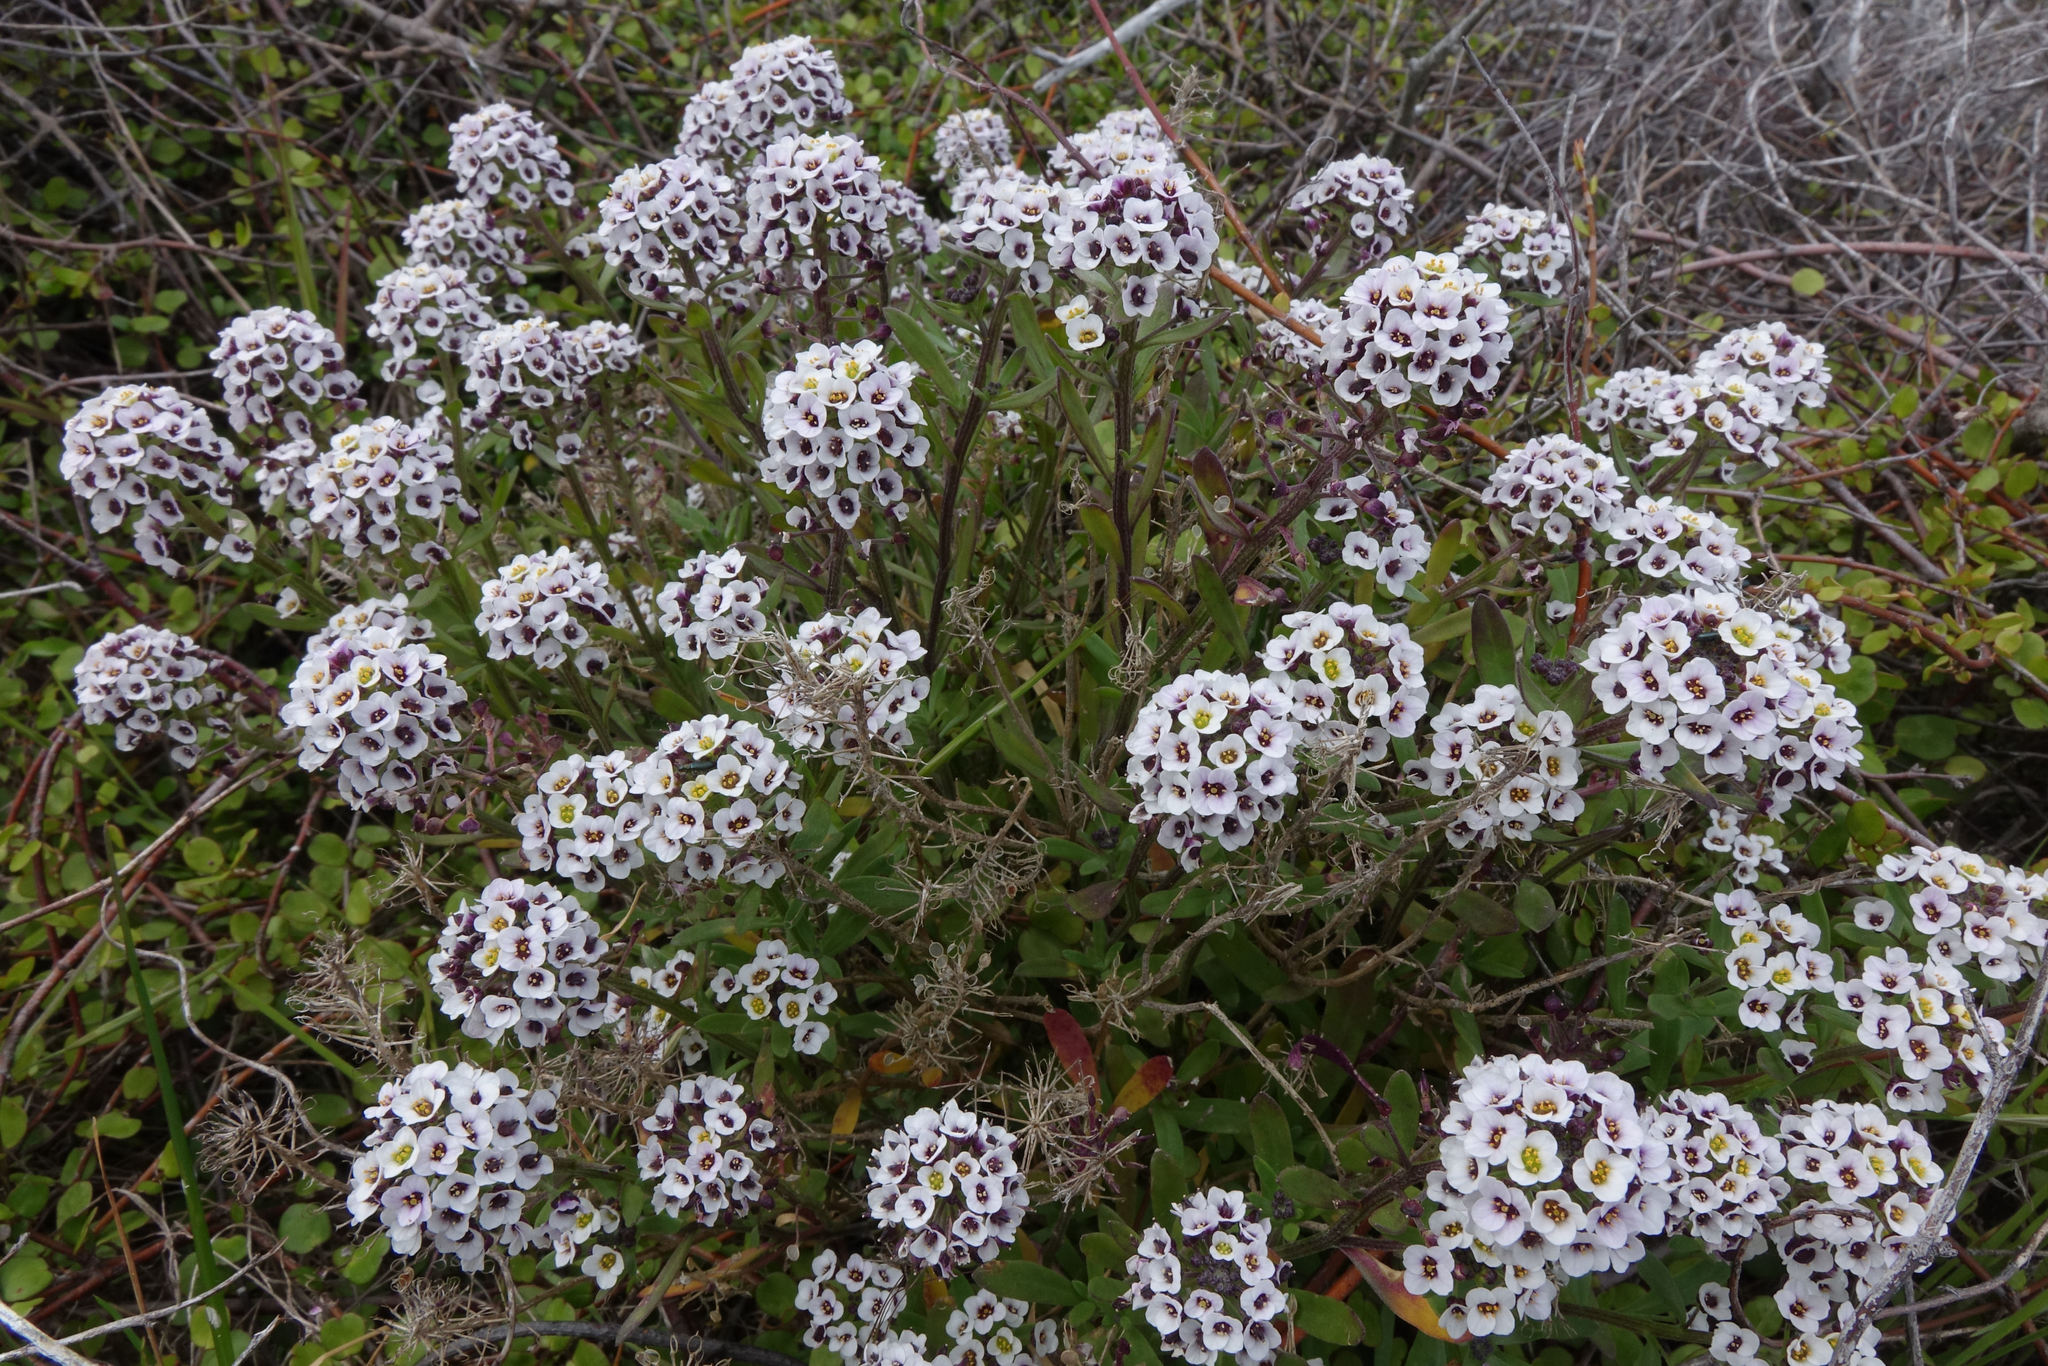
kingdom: Plantae
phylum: Tracheophyta
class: Magnoliopsida
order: Brassicales
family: Brassicaceae
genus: Lobularia
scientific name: Lobularia maritima
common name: Sweet alison
